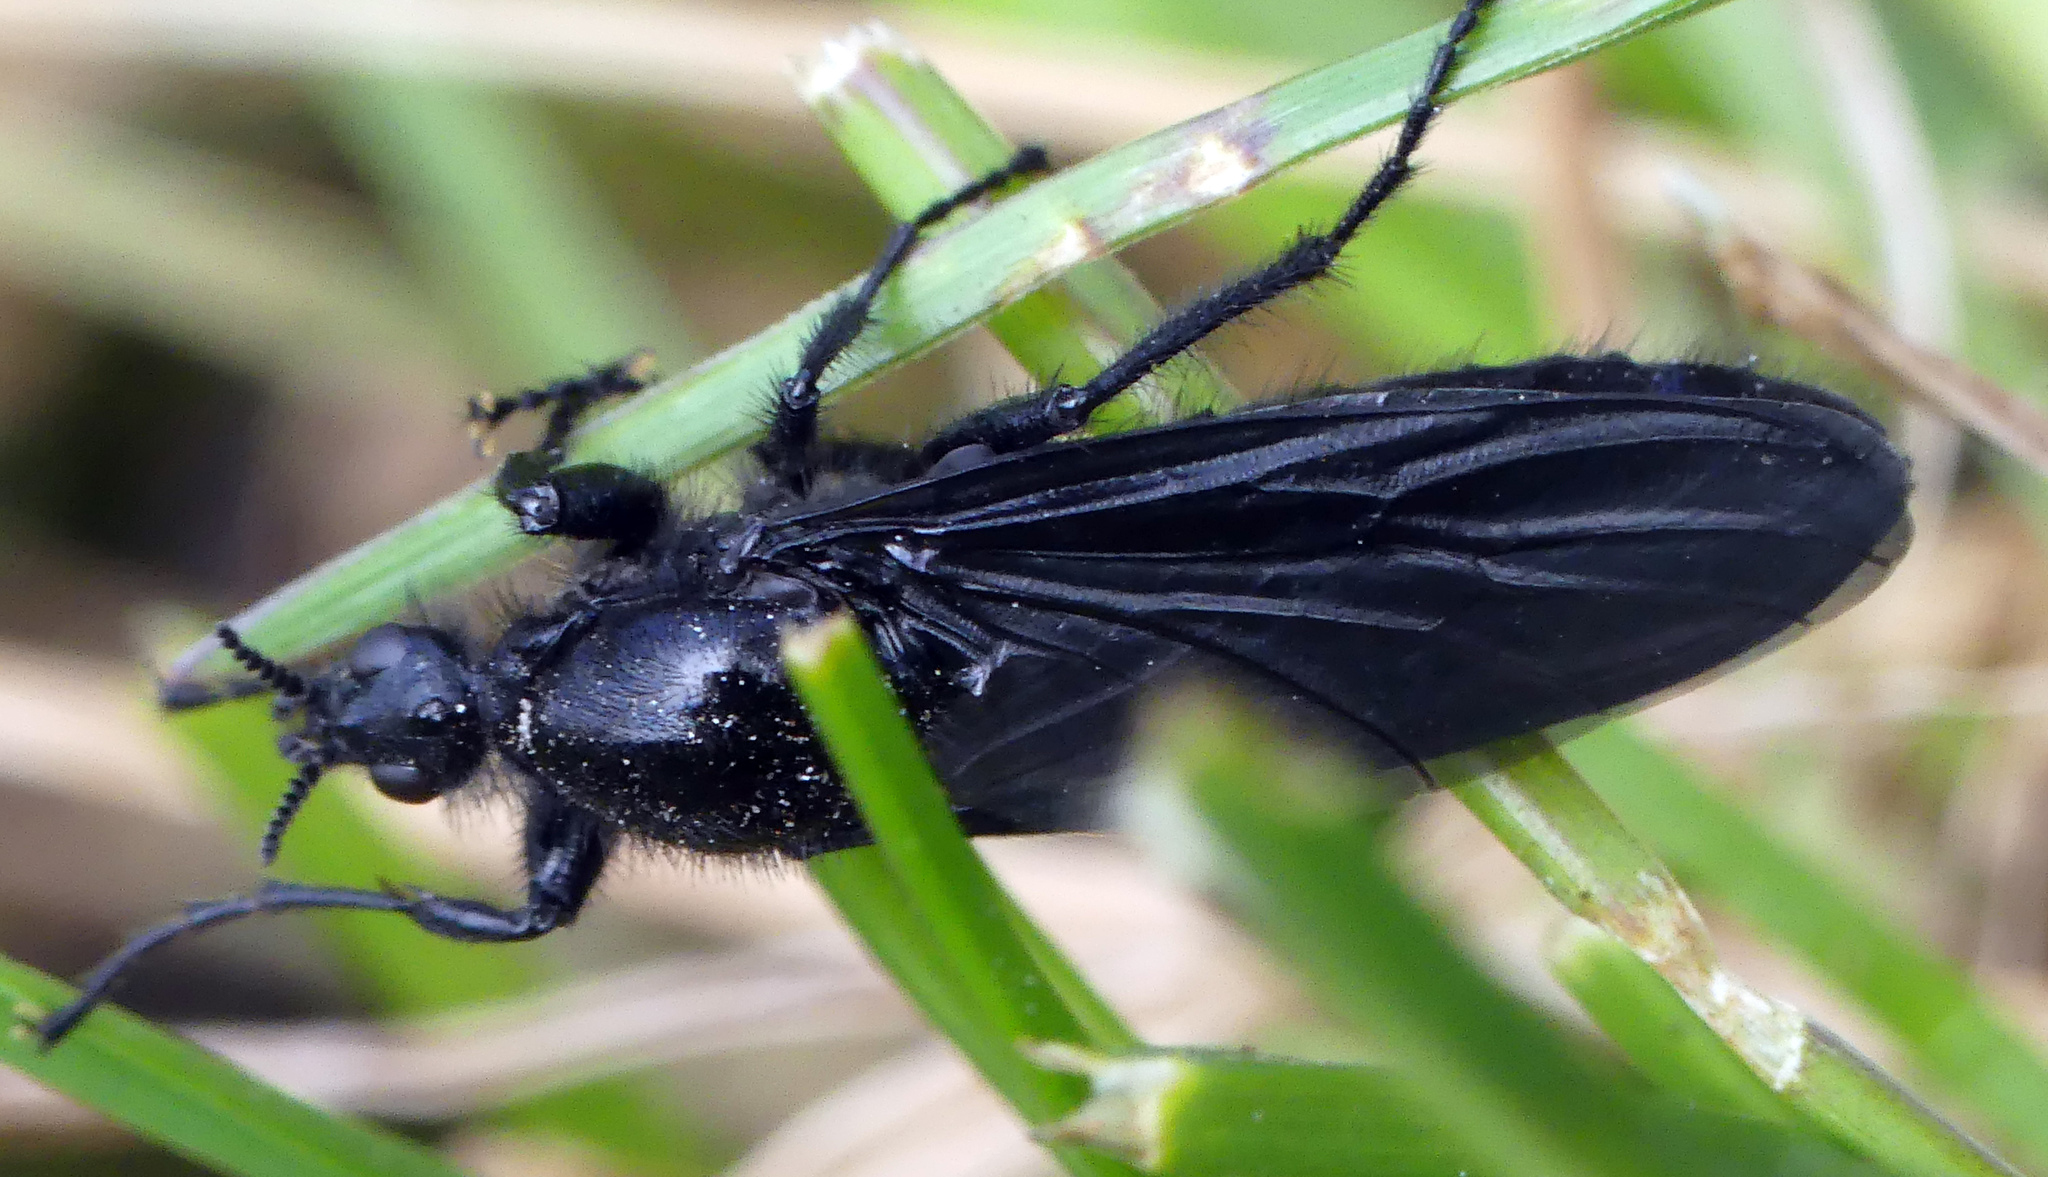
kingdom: Animalia
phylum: Arthropoda
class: Insecta
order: Diptera
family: Bibionidae
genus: Bibio
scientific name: Bibio marci
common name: St marks fly
